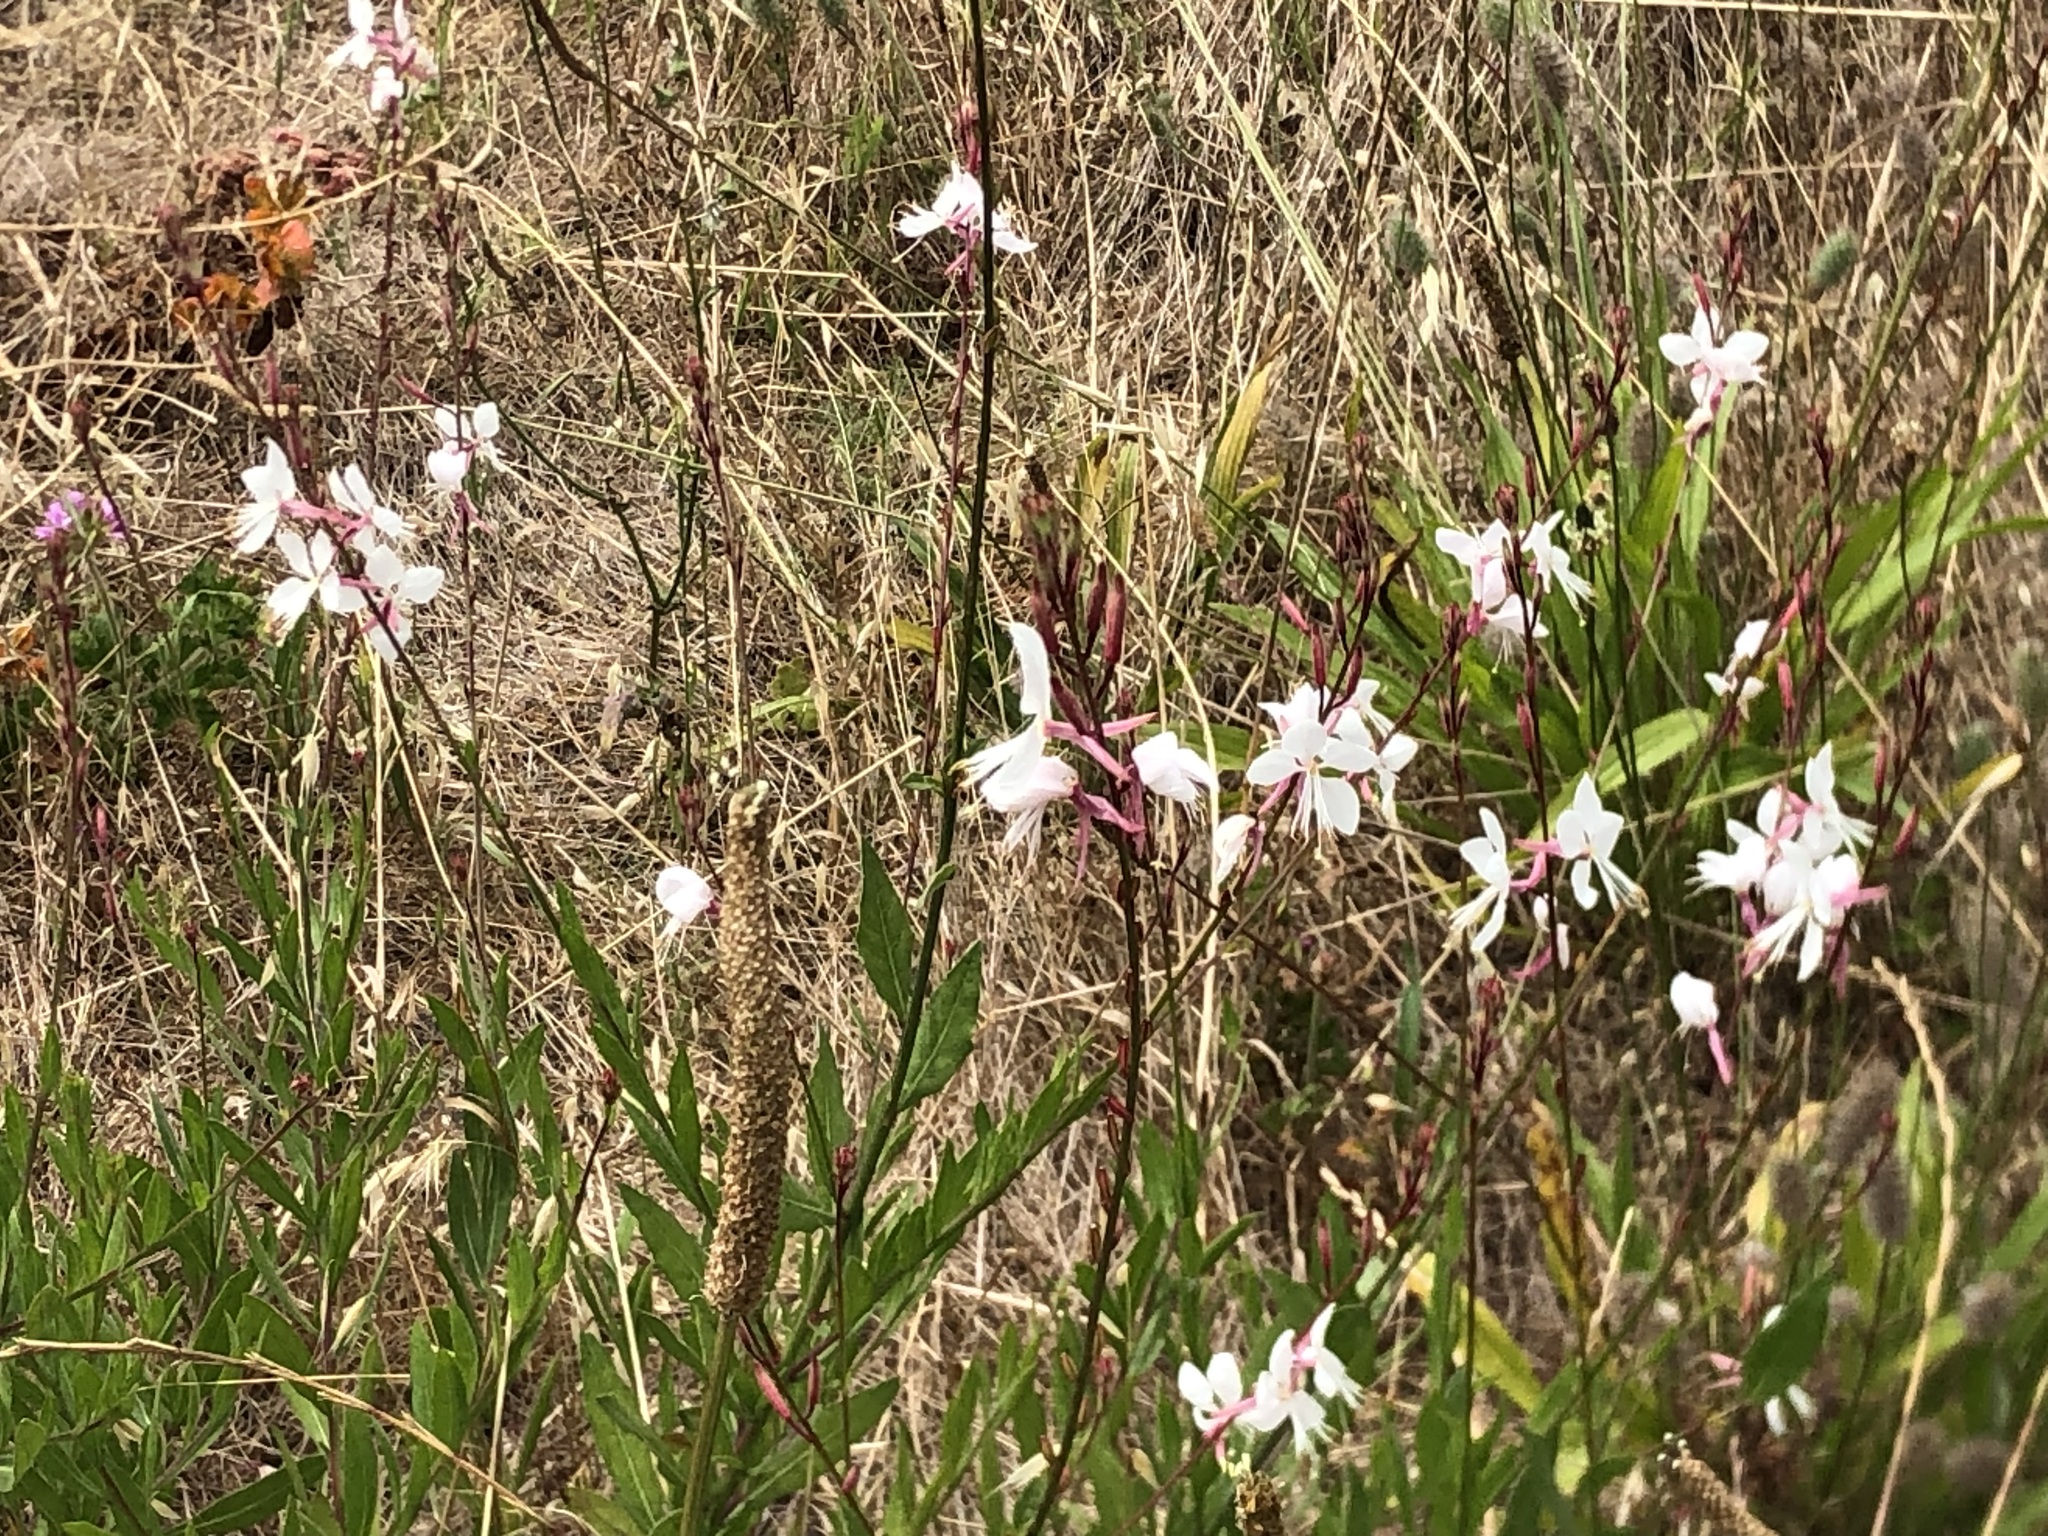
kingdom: Plantae
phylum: Tracheophyta
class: Magnoliopsida
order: Myrtales
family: Onagraceae
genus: Oenothera
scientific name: Oenothera lindheimeri
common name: Lindheimer's beeblossom
